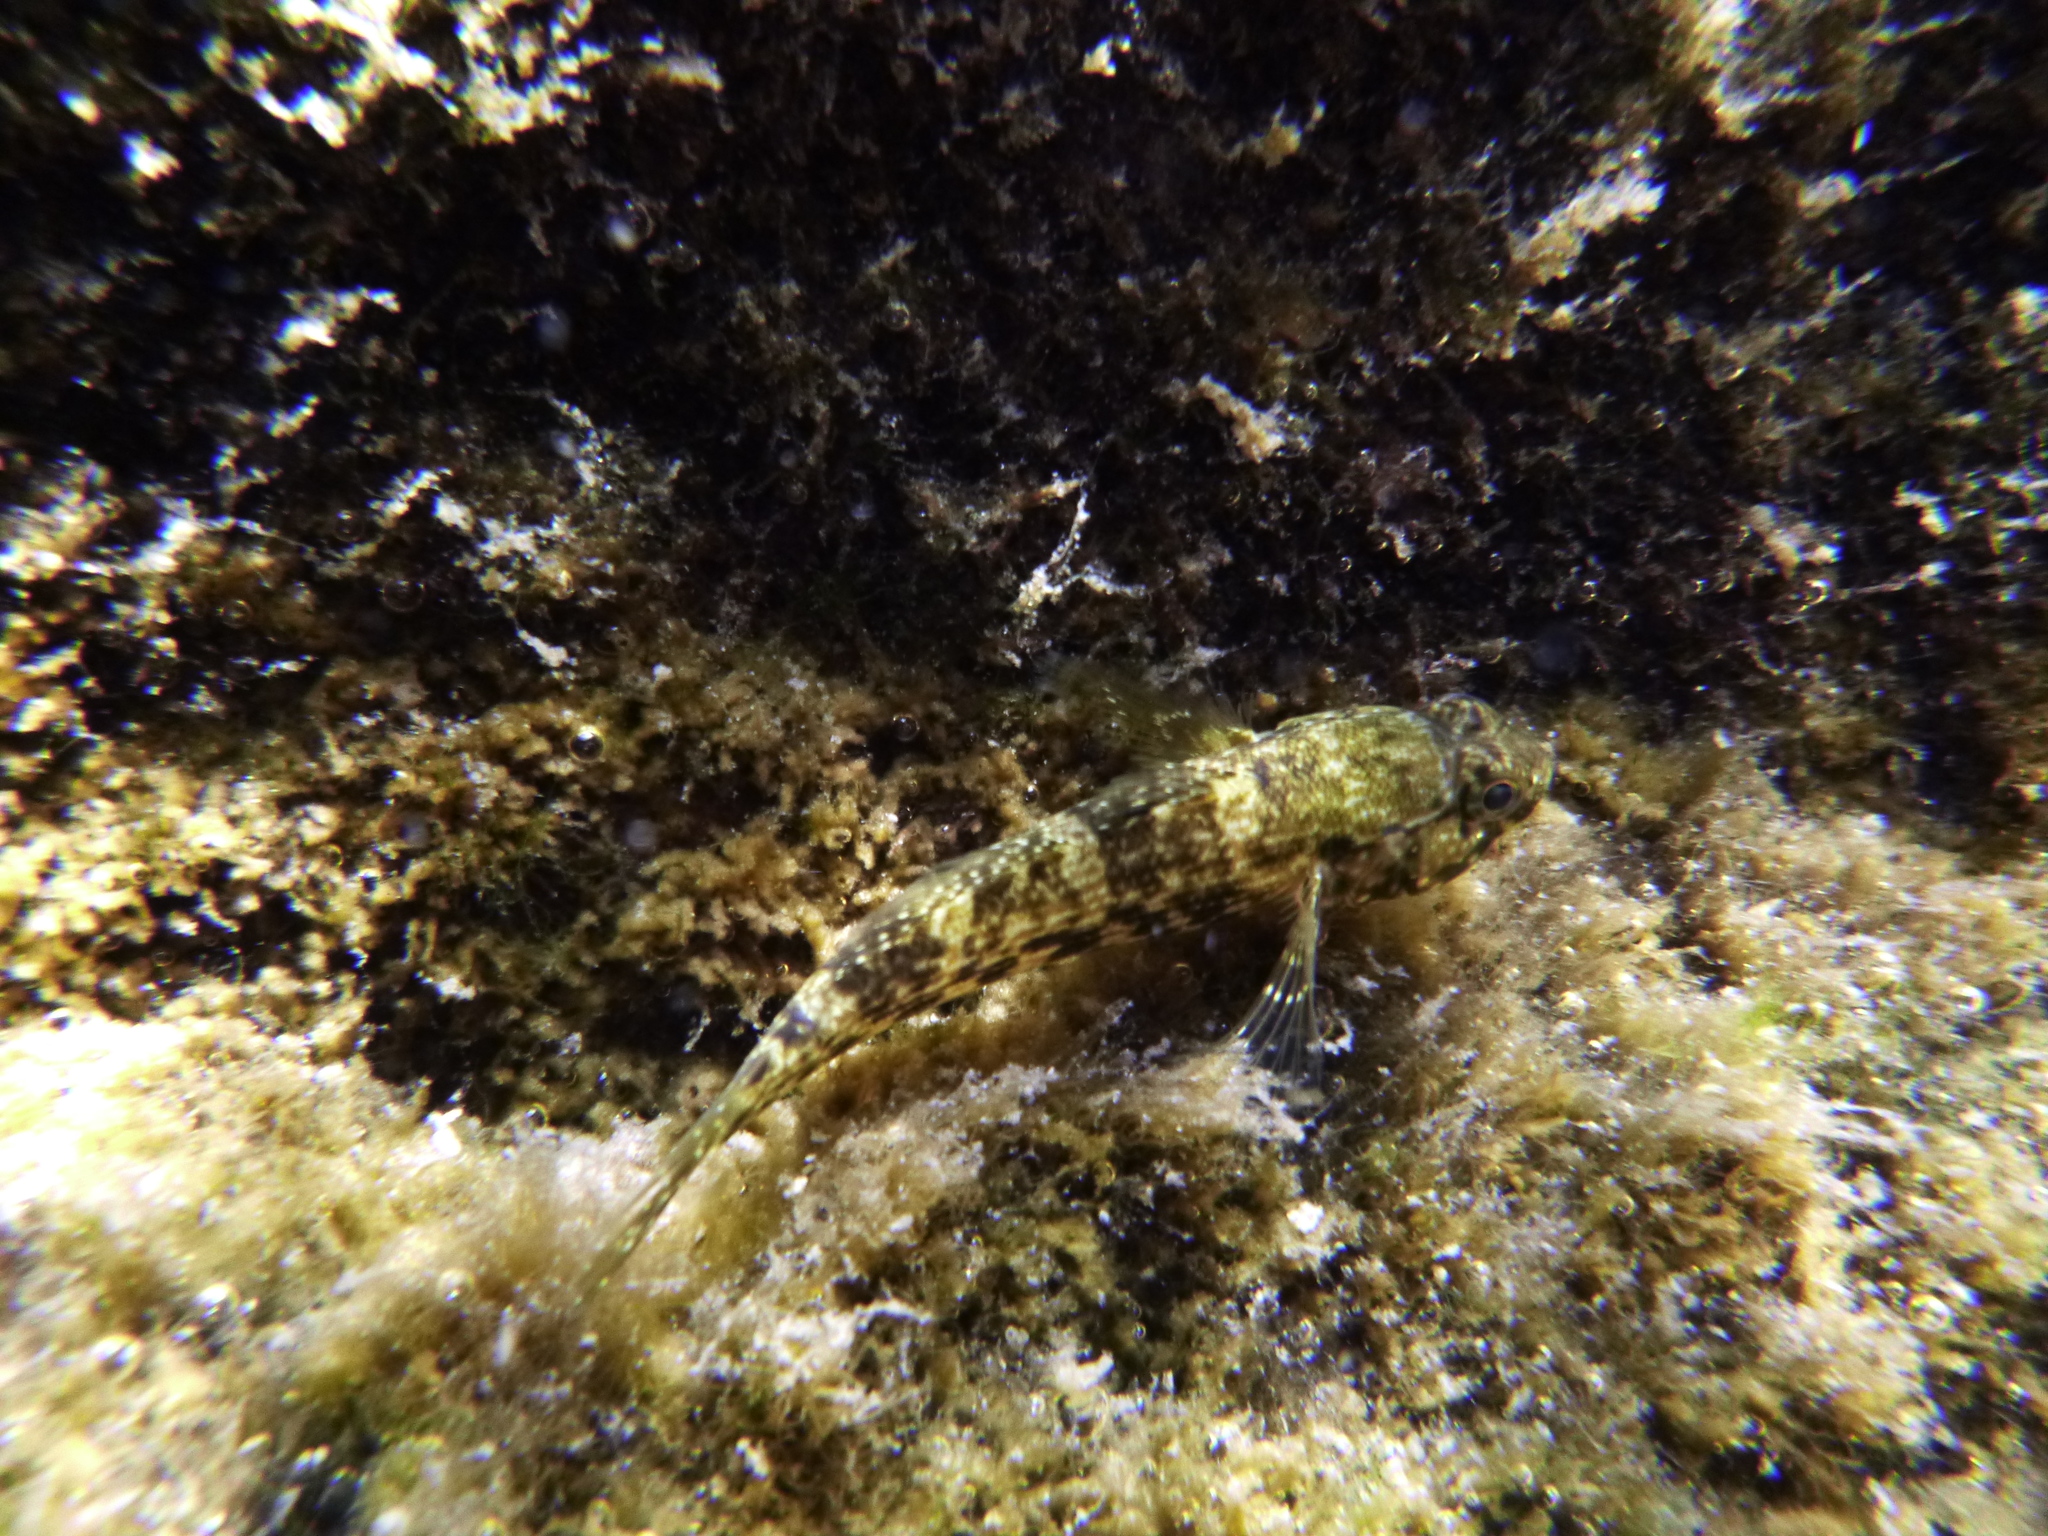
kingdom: Animalia
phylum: Chordata
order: Perciformes
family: Gobiidae
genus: Bathygobius
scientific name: Bathygobius lineatus
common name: Southern frillfin
